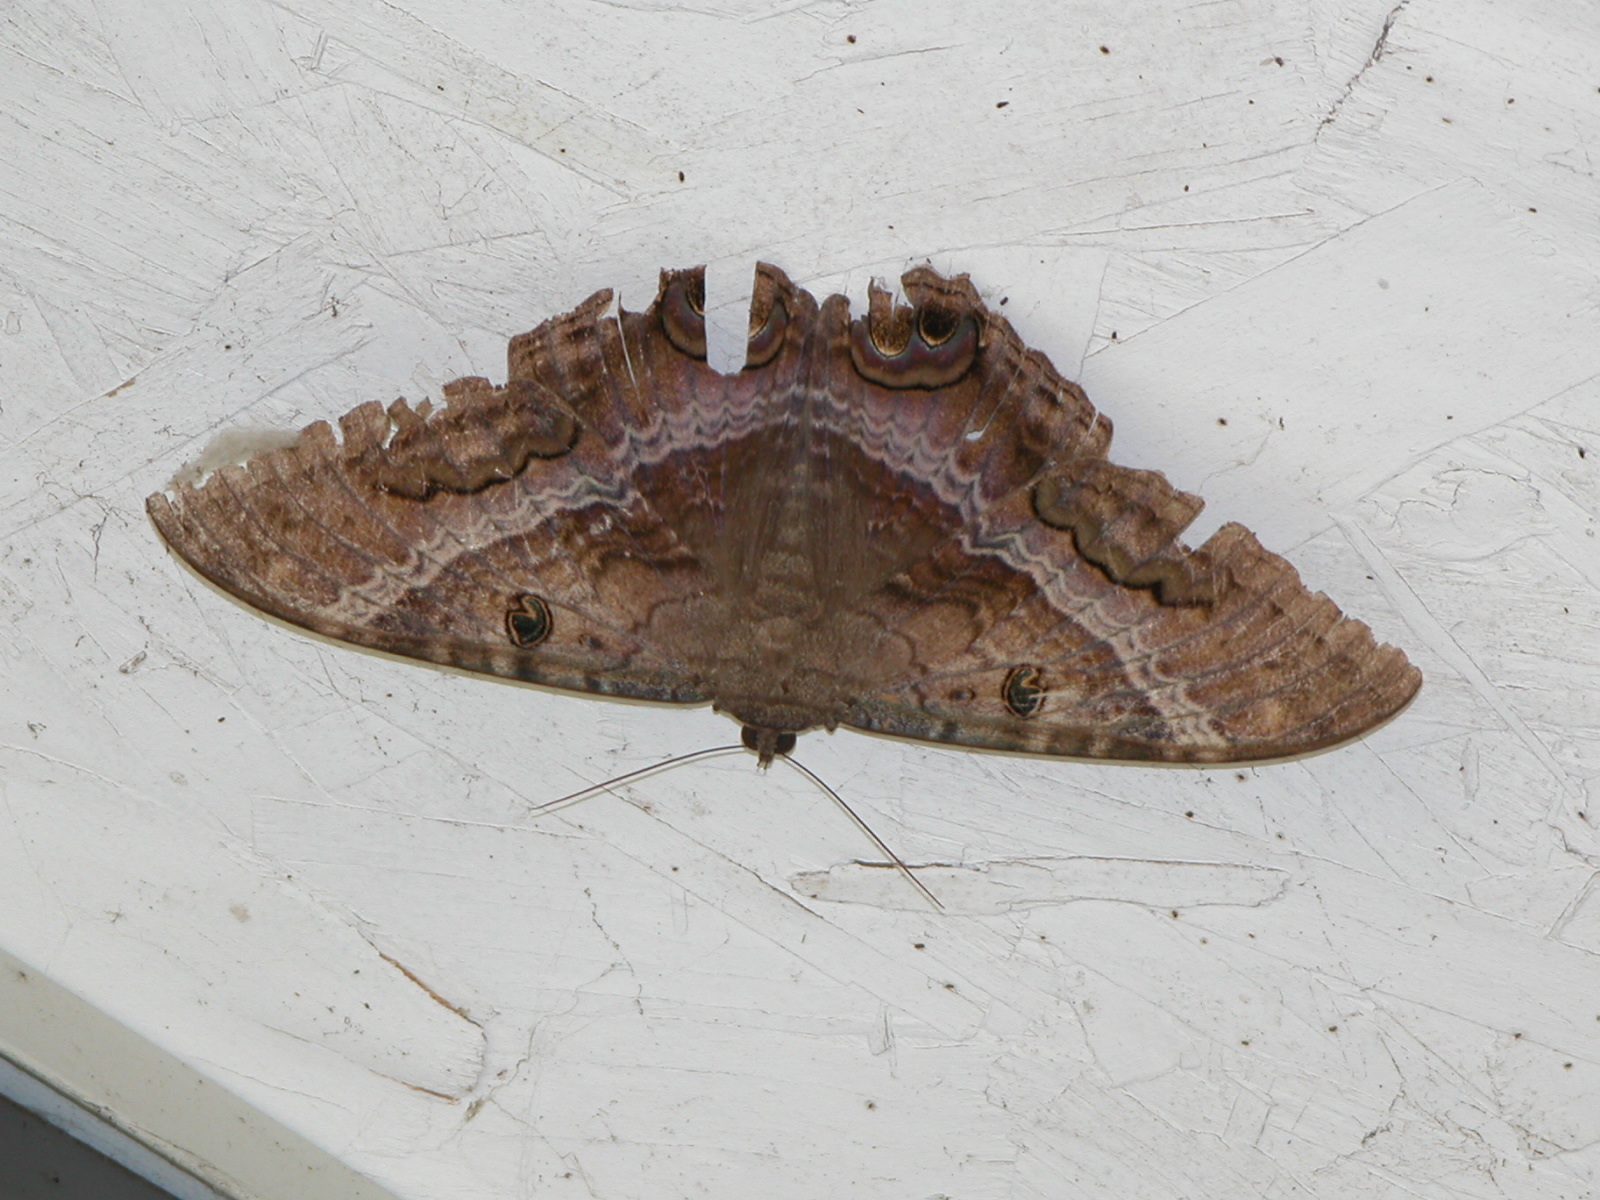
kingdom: Animalia
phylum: Arthropoda
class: Insecta
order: Lepidoptera
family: Erebidae
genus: Ascalapha
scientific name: Ascalapha odorata
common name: Black witch
